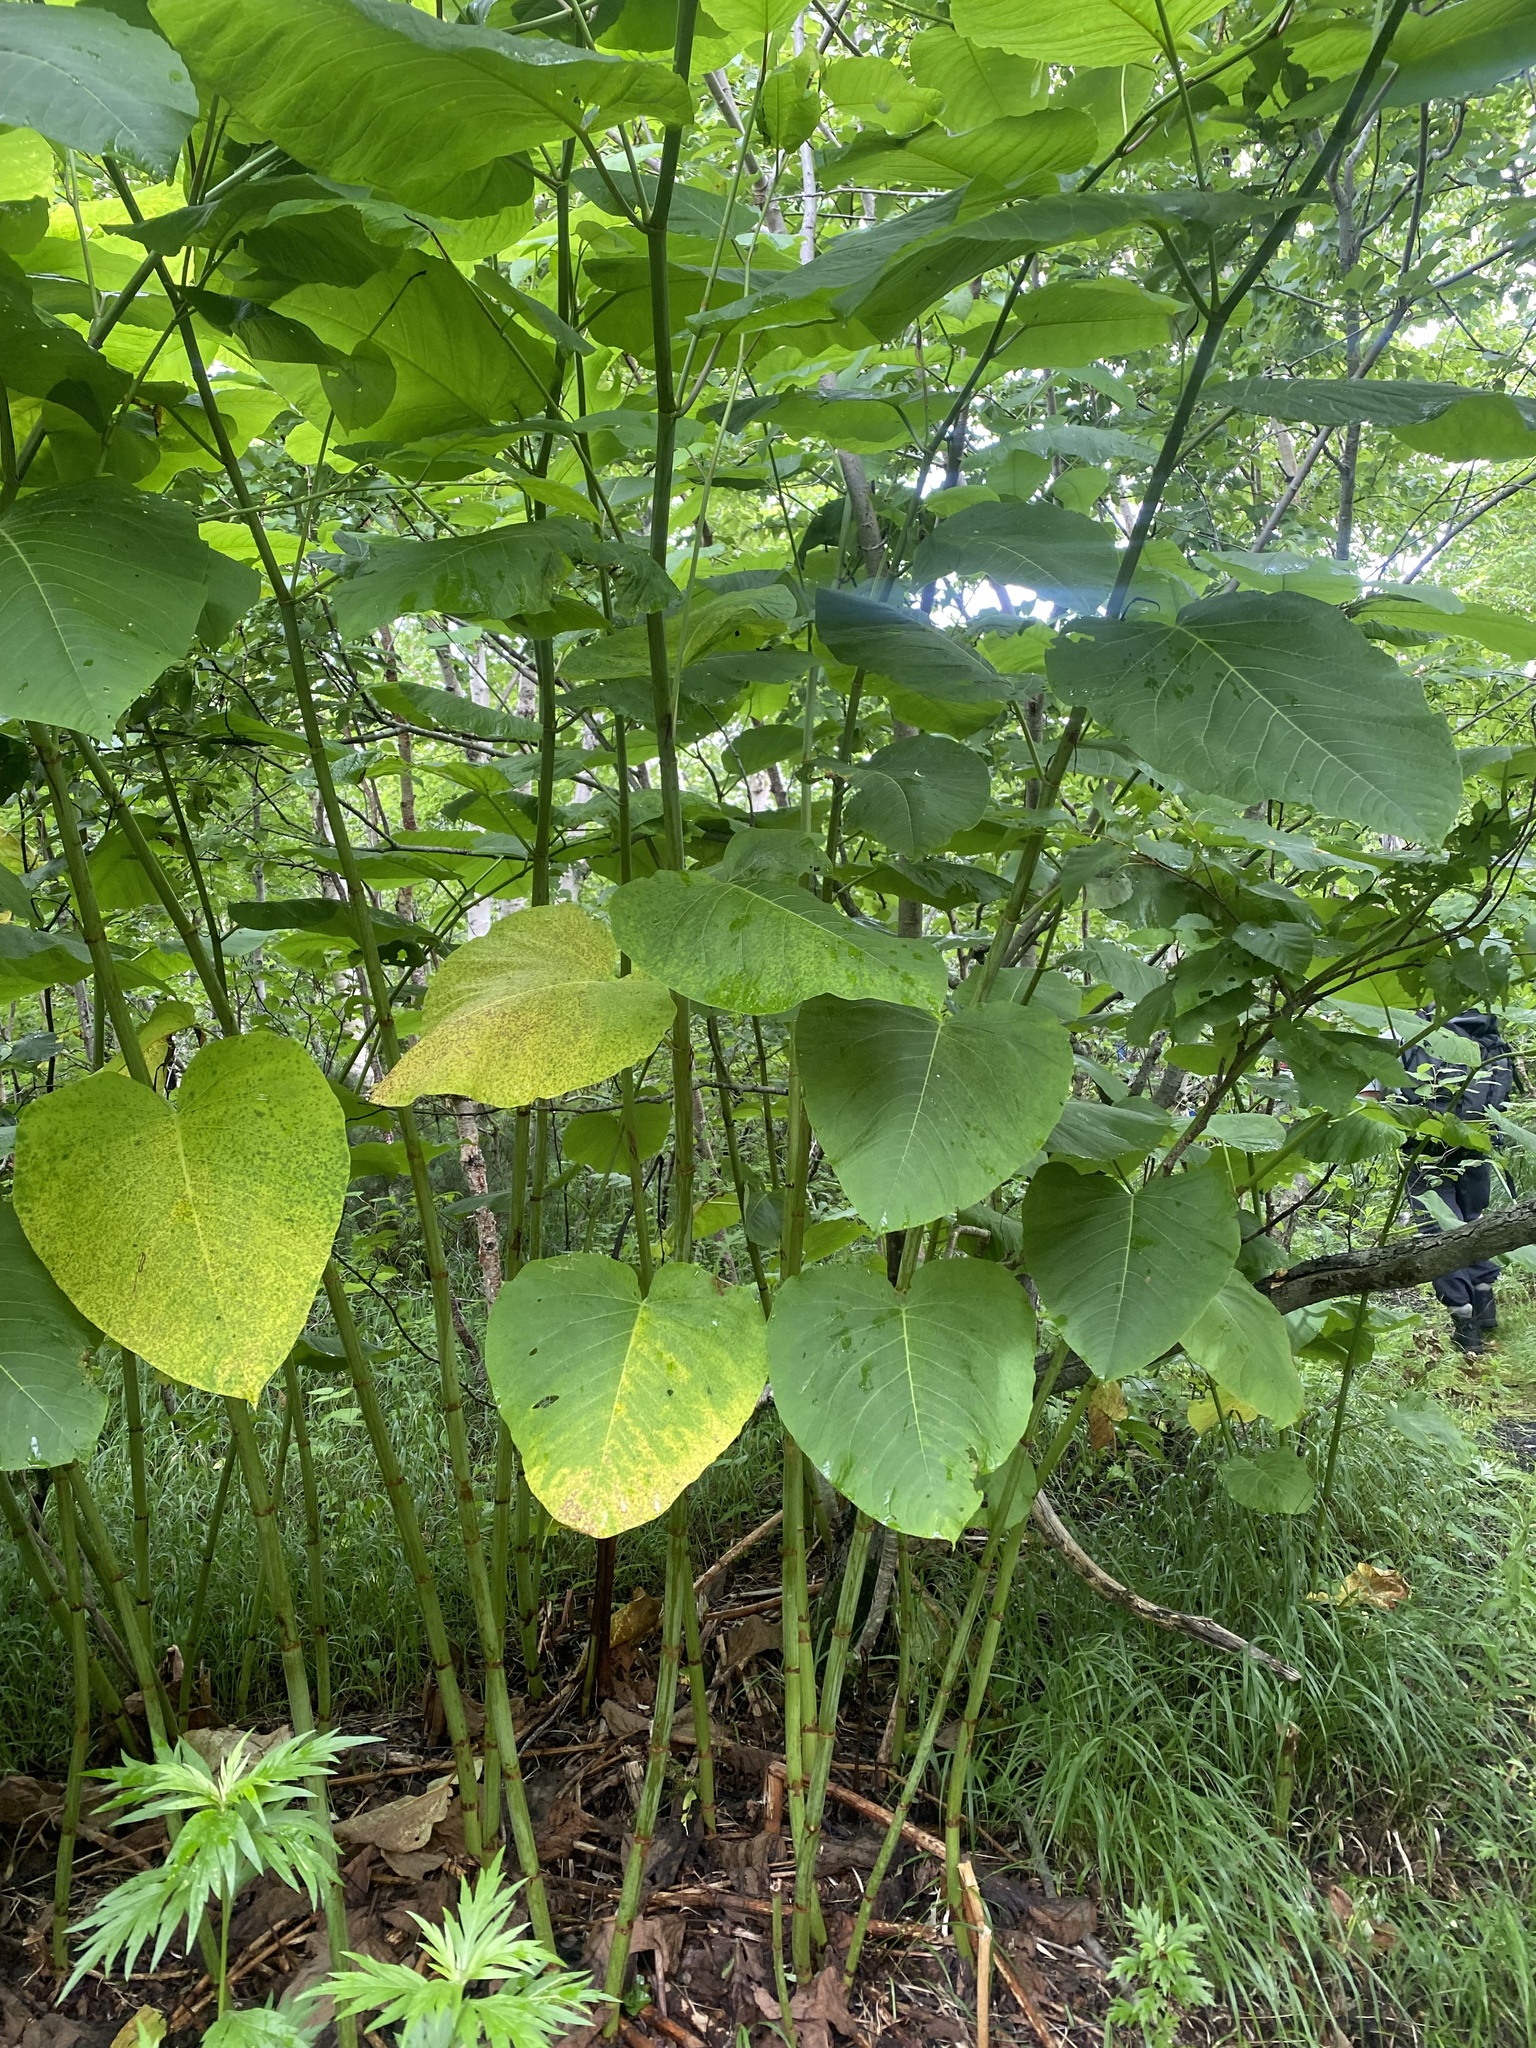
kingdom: Plantae
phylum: Tracheophyta
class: Magnoliopsida
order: Caryophyllales
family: Polygonaceae
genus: Reynoutria
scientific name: Reynoutria sachalinensis
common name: Giant knotweed
